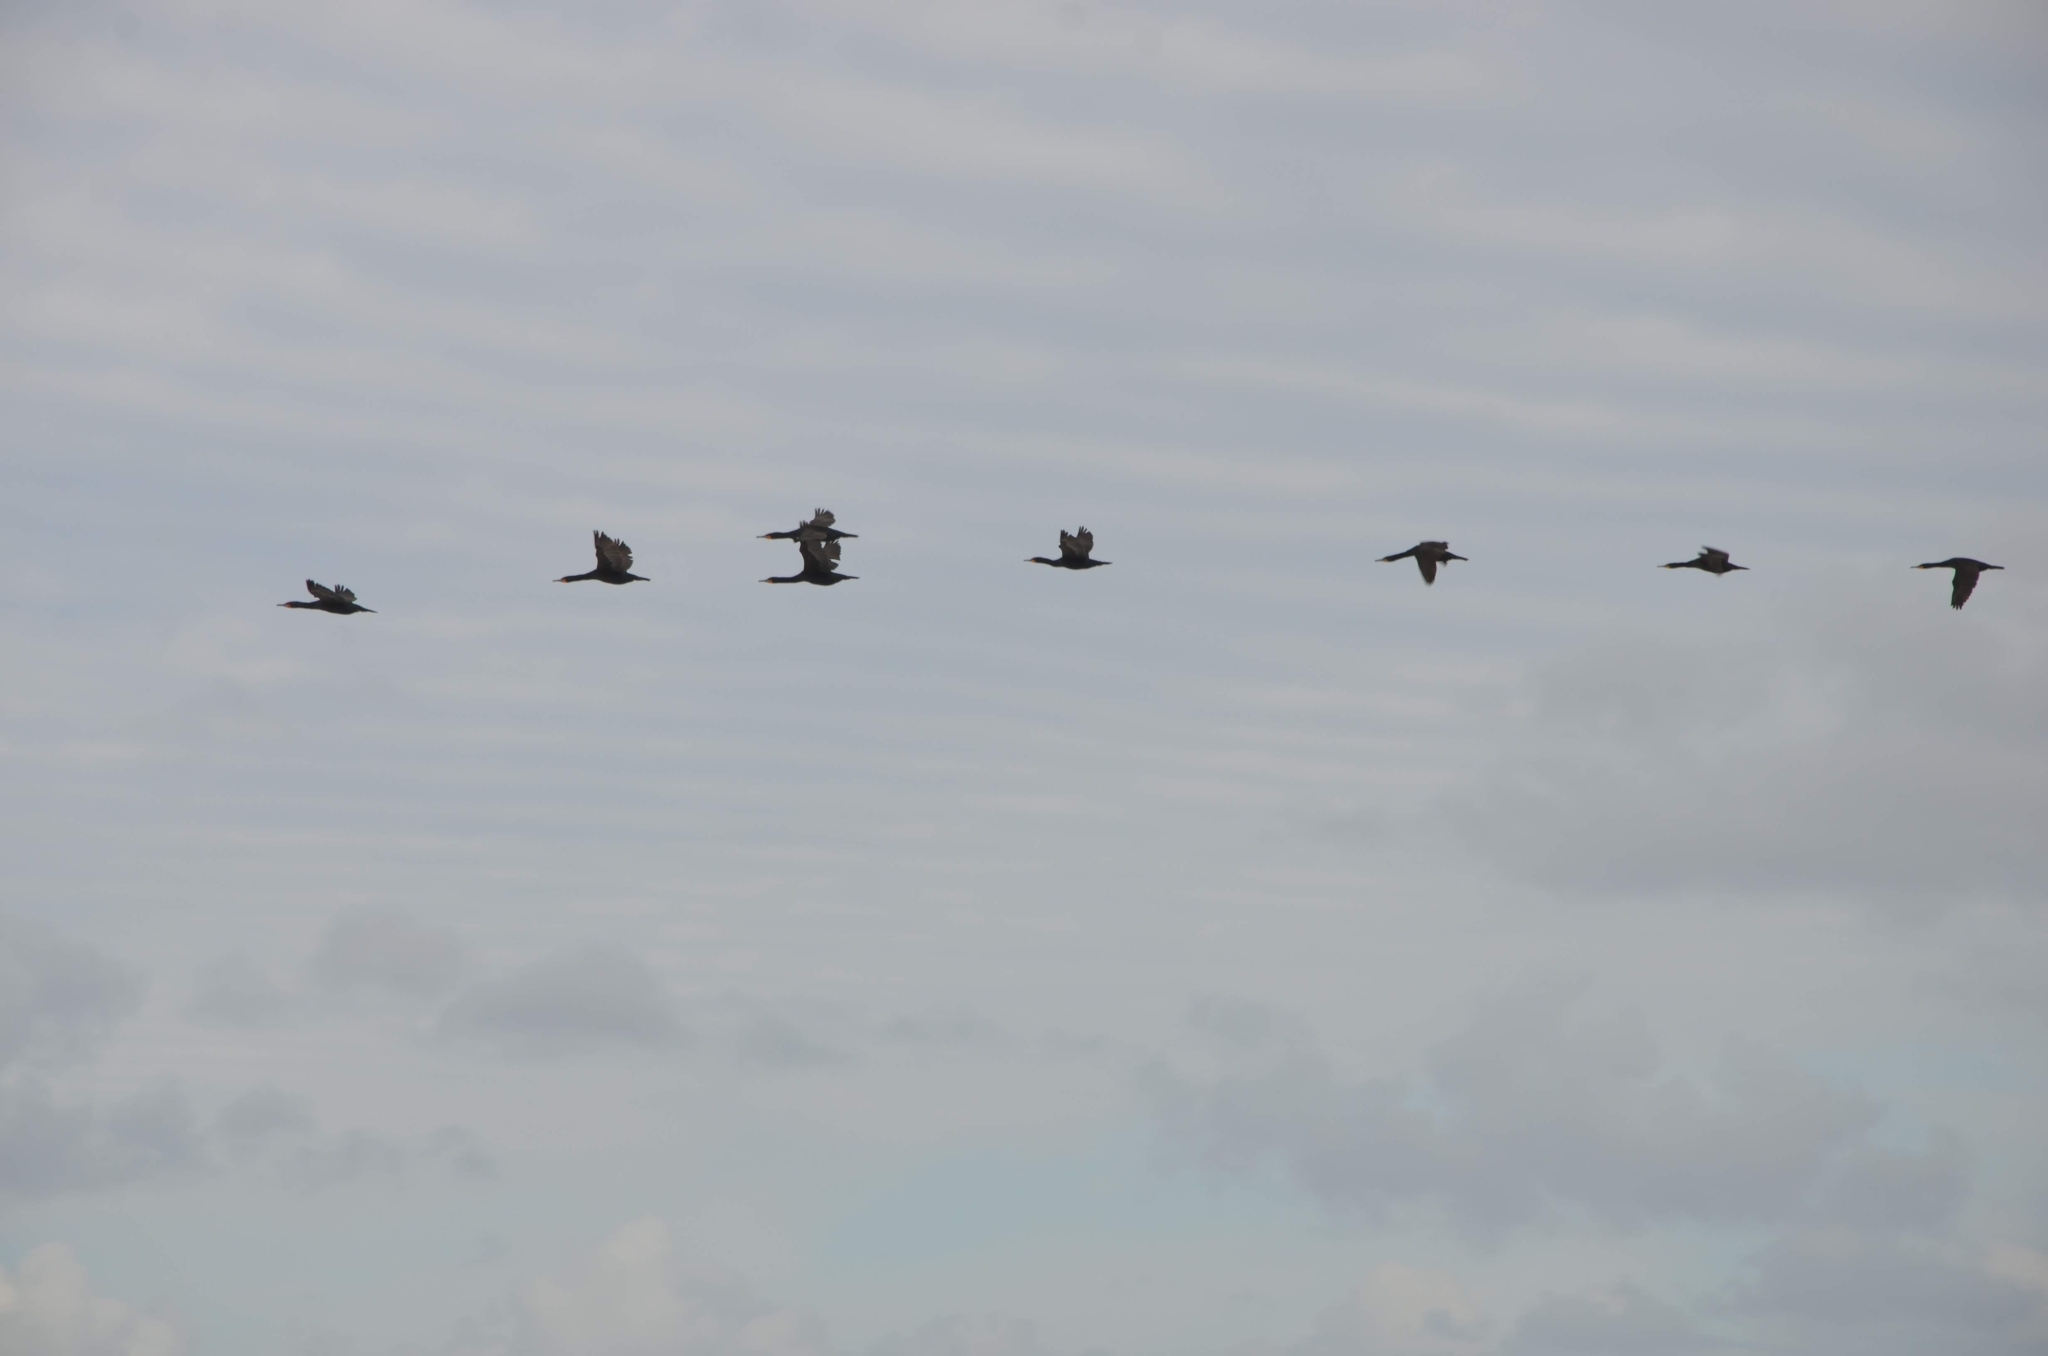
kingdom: Animalia
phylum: Chordata
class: Aves
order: Suliformes
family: Phalacrocoracidae
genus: Phalacrocorax
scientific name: Phalacrocorax capensis
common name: Cape cormorant
